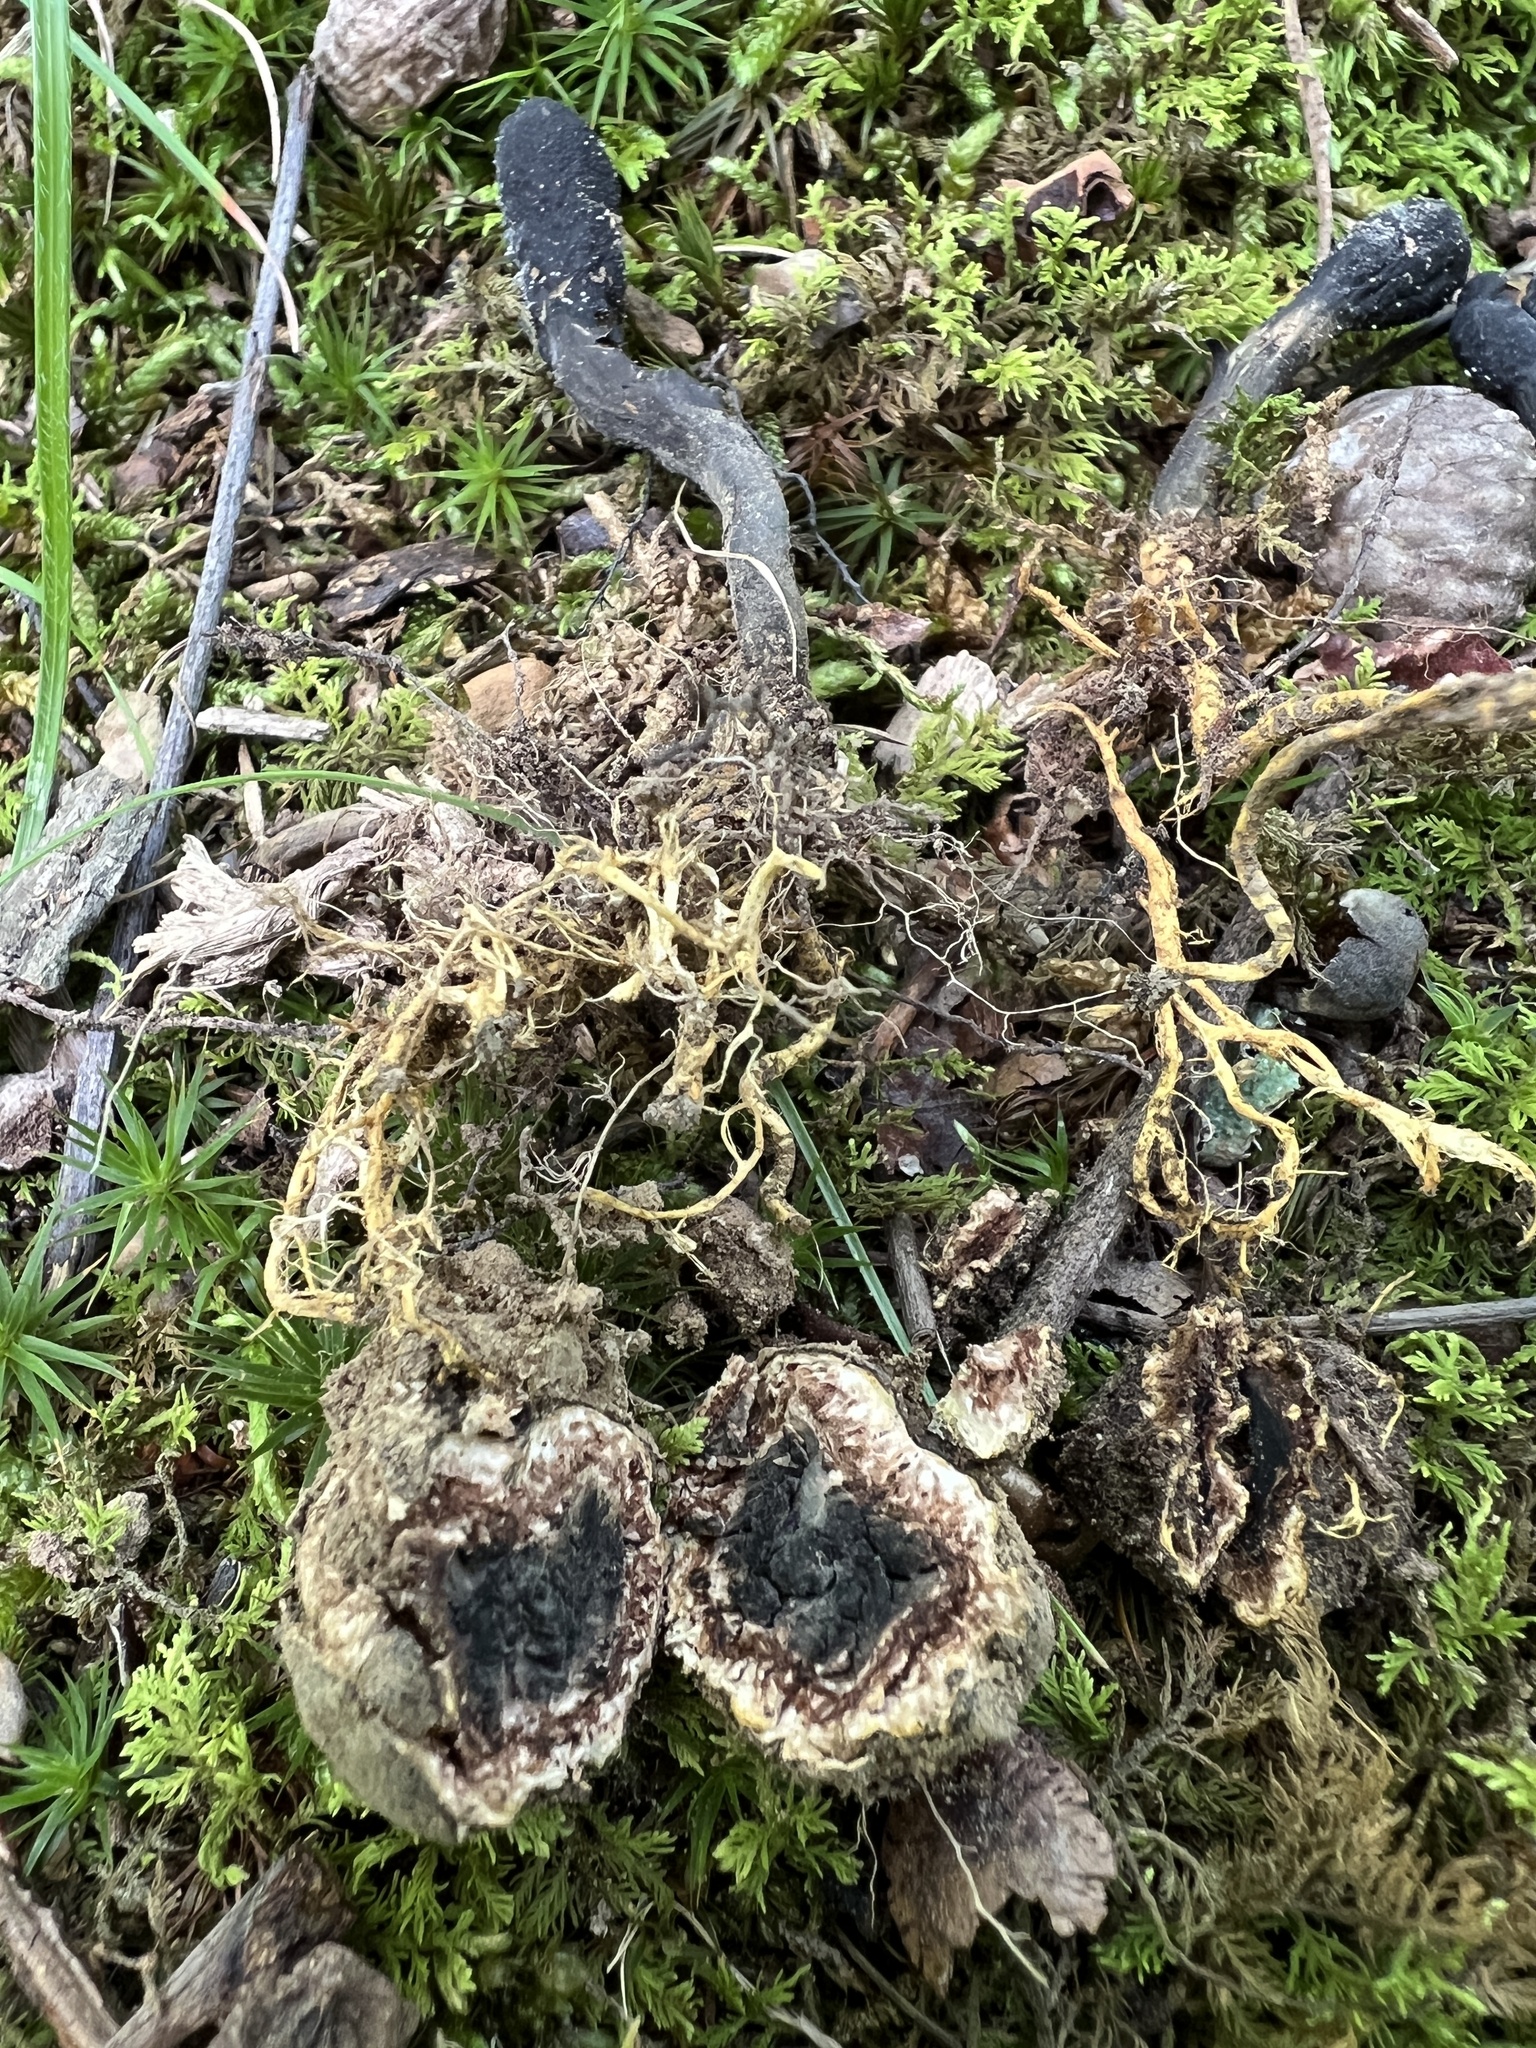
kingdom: Fungi
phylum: Ascomycota
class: Sordariomycetes
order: Hypocreales
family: Ophiocordycipitaceae
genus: Tolypocladium
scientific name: Tolypocladium ophioglossoides
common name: Snaketongue truffleclub
